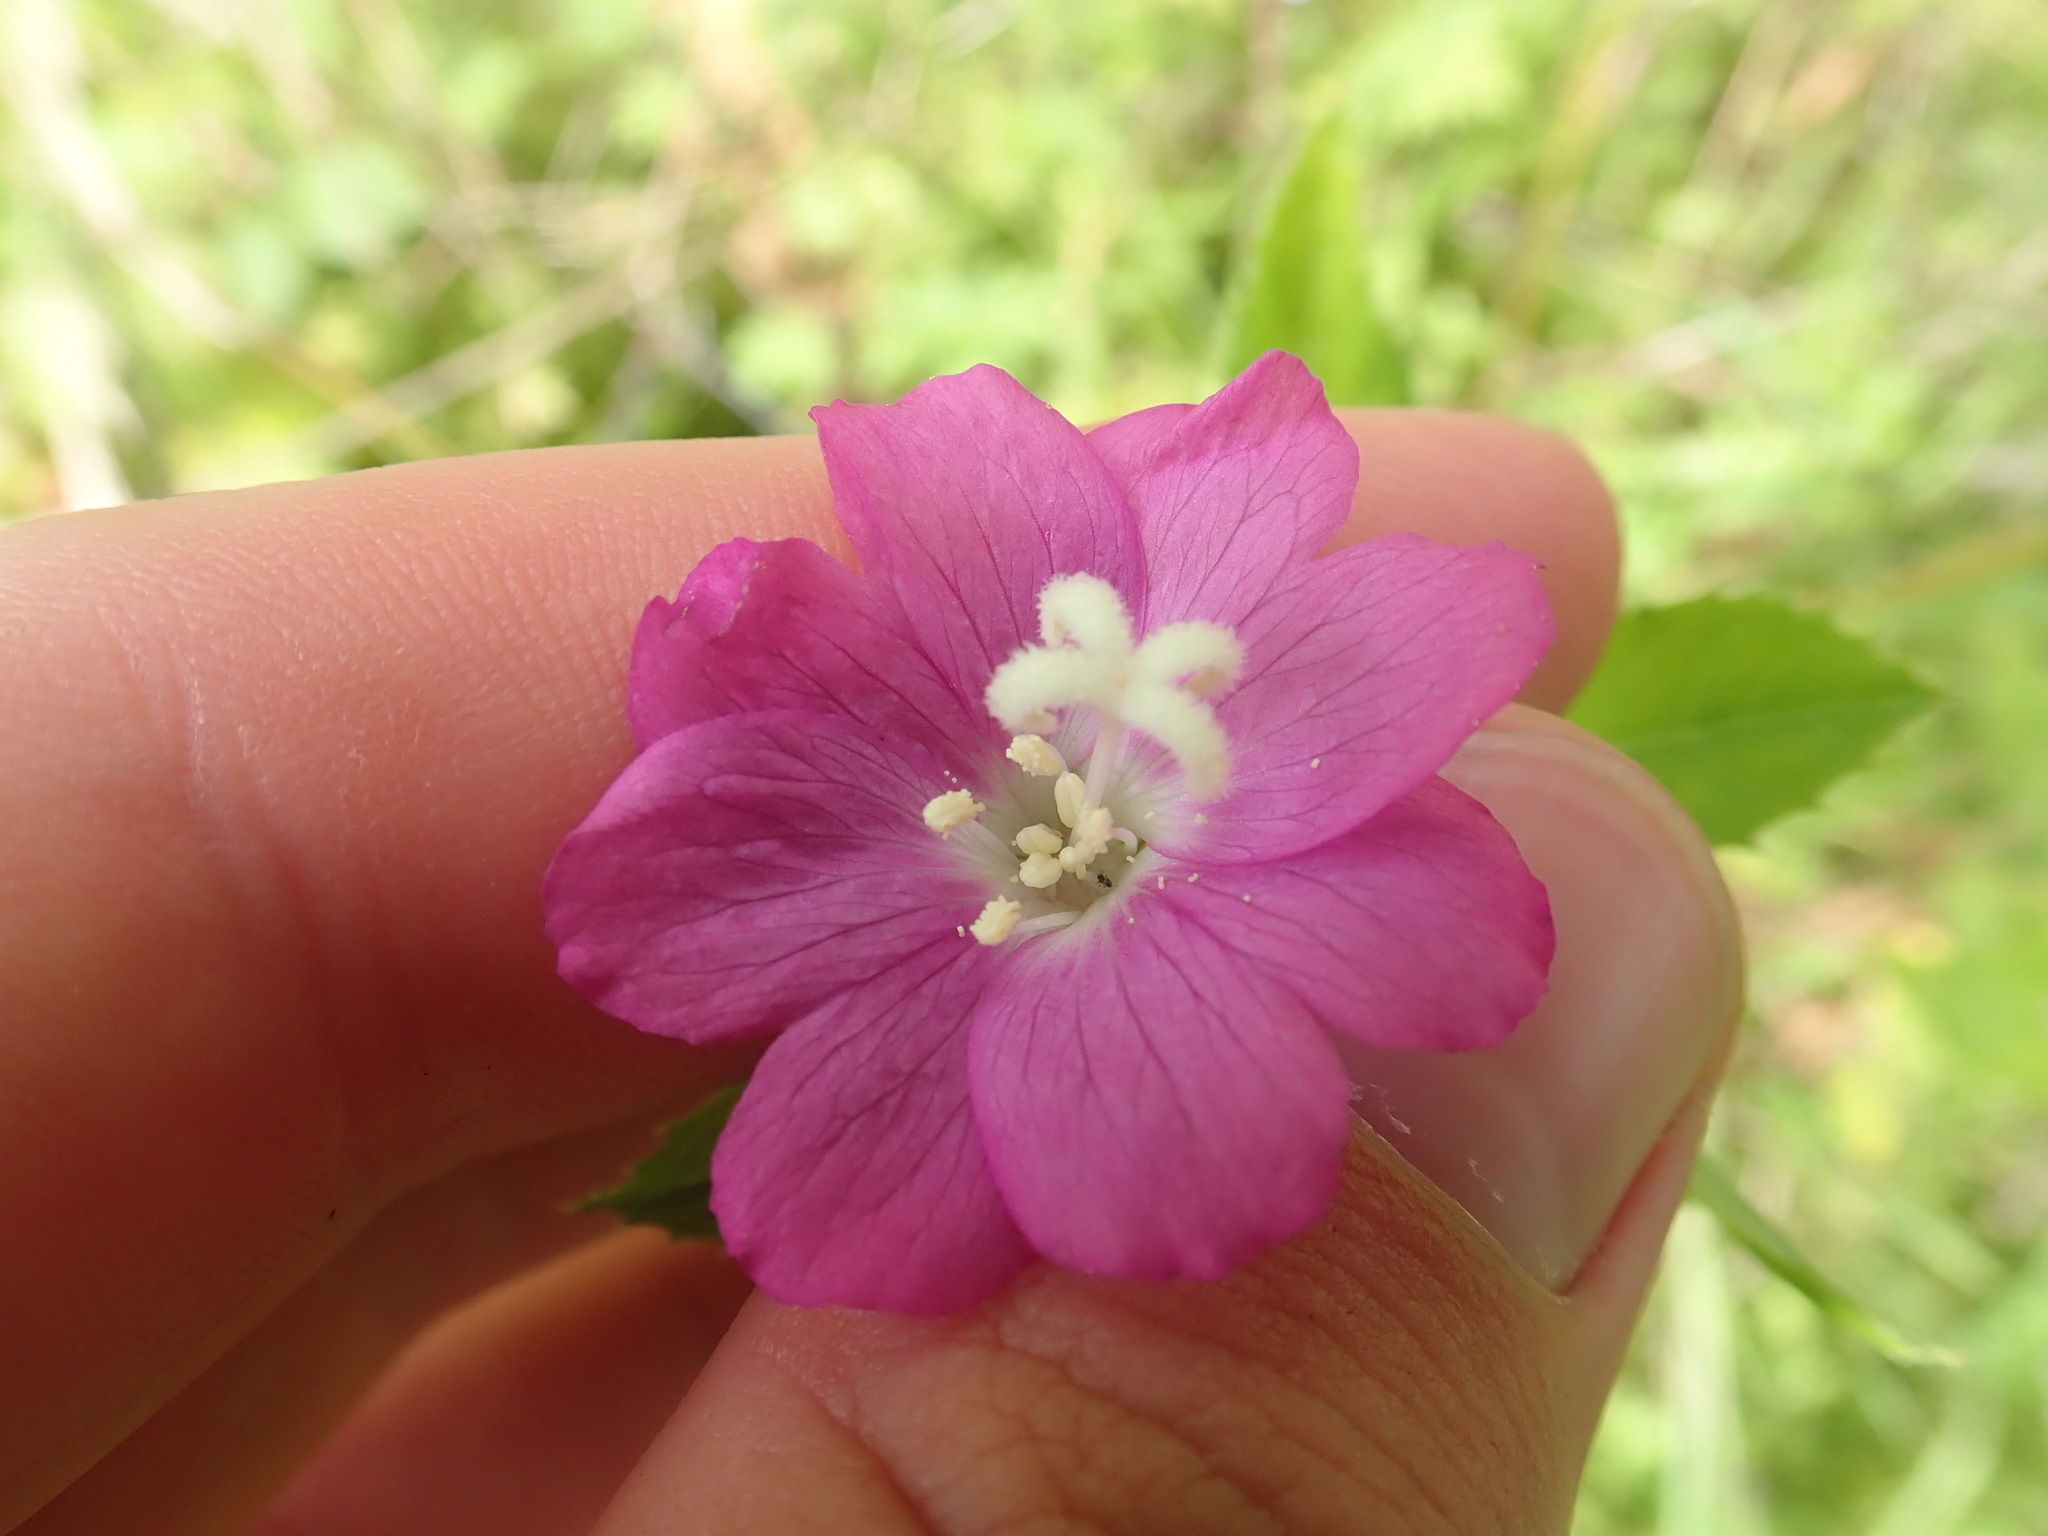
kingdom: Plantae
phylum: Tracheophyta
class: Magnoliopsida
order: Myrtales
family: Onagraceae
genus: Epilobium
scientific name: Epilobium hirsutum
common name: Great willowherb
